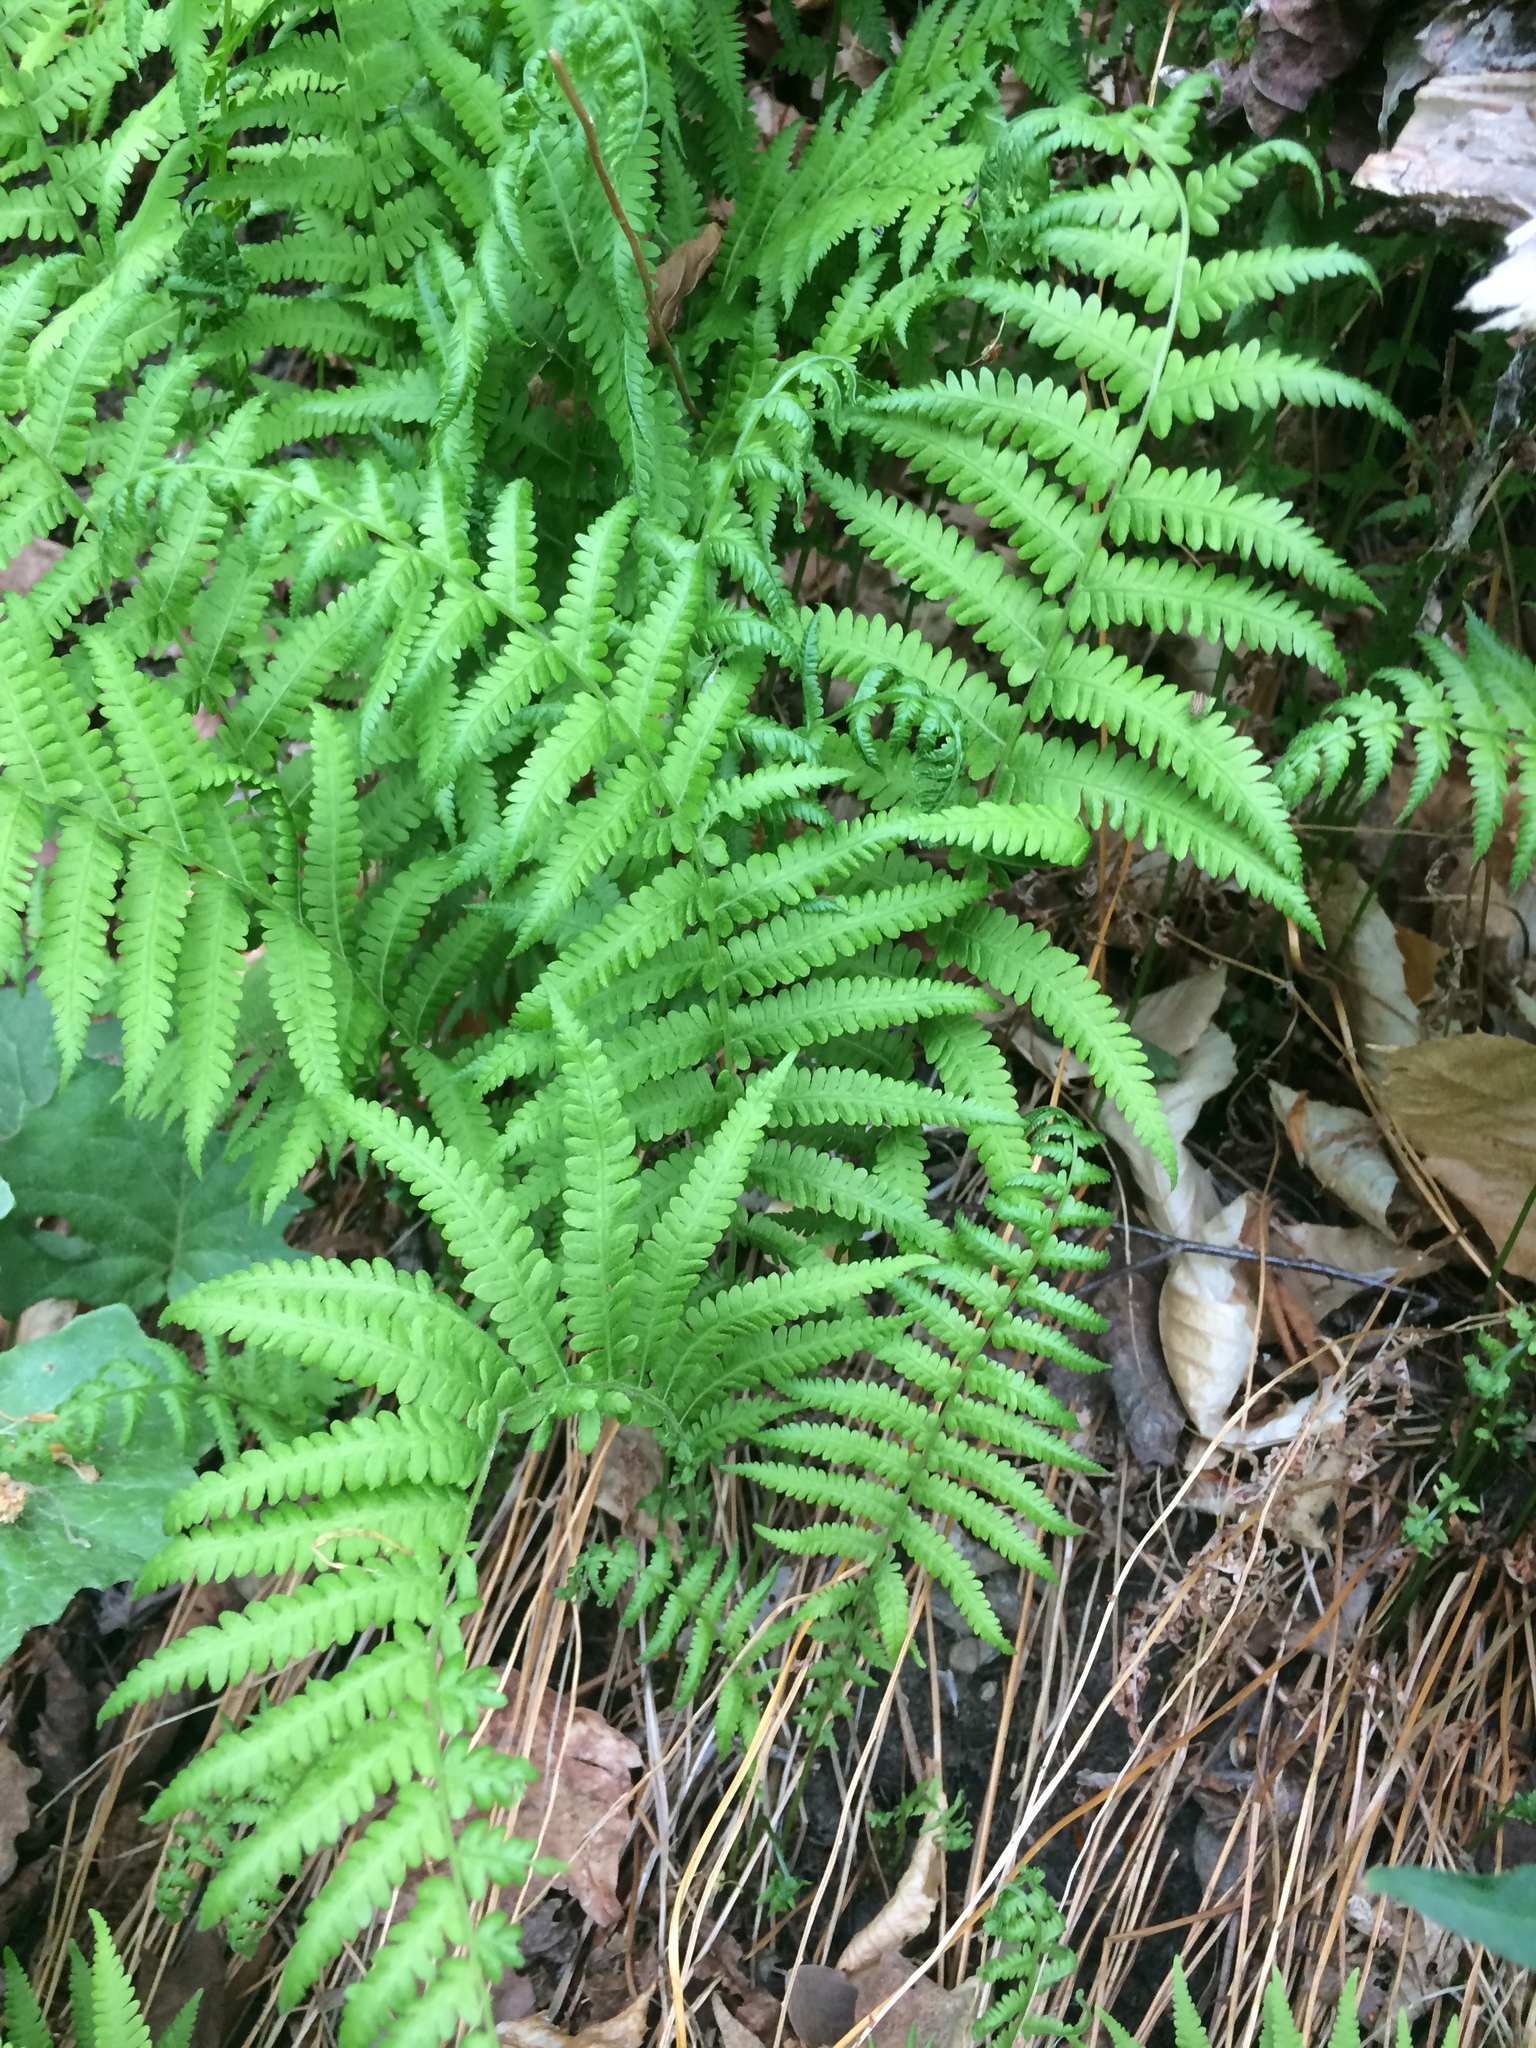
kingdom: Plantae
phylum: Tracheophyta
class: Polypodiopsida
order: Polypodiales
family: Thelypteridaceae
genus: Amauropelta
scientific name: Amauropelta noveboracensis
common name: New york fern
